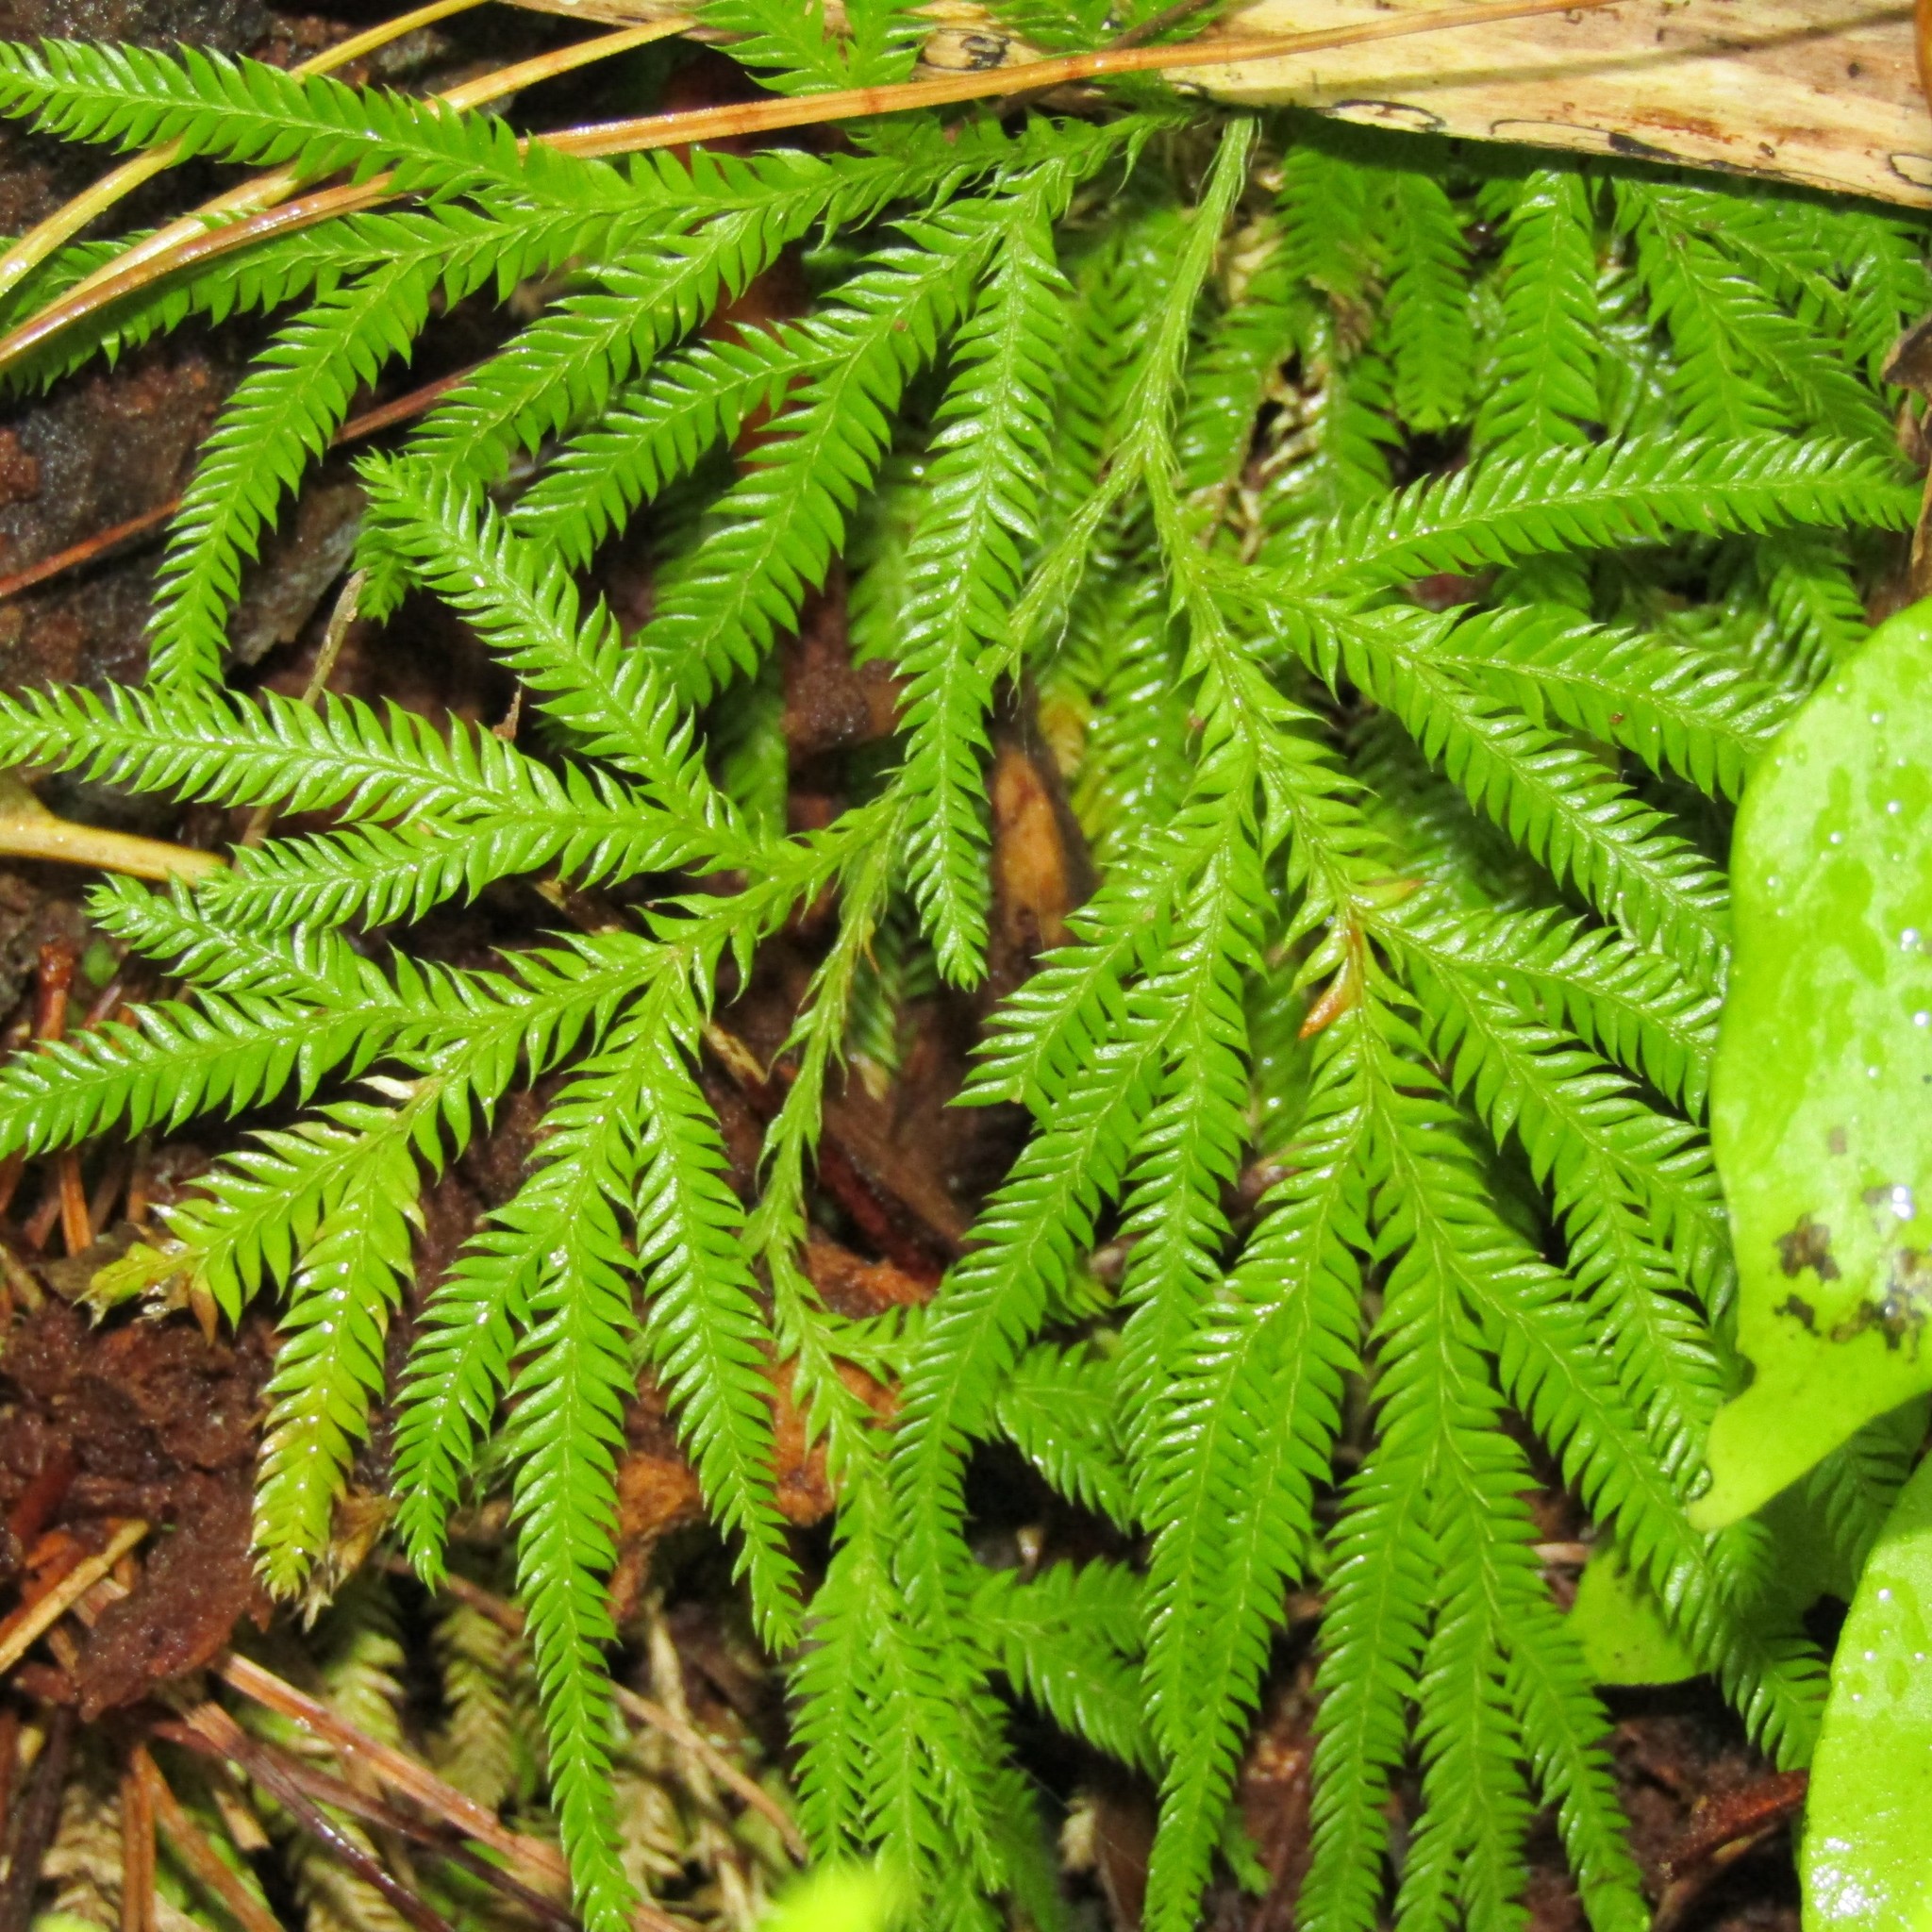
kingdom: Plantae
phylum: Tracheophyta
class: Lycopodiopsida
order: Lycopodiales
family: Lycopodiaceae
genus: Lycopodium
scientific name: Lycopodium volubile
